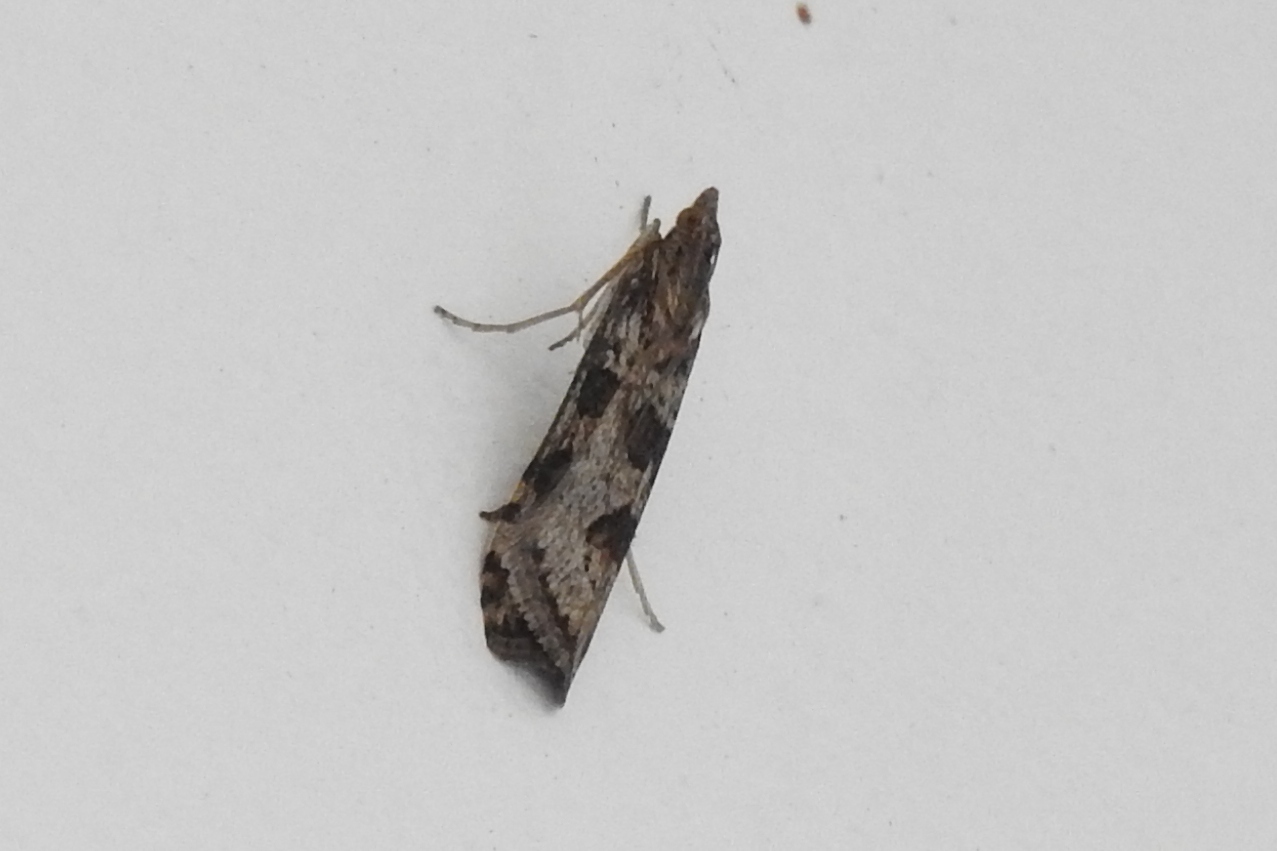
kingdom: Animalia
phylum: Arthropoda
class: Insecta
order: Lepidoptera
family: Crambidae
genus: Nomophila
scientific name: Nomophila nearctica
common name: American rush veneer
